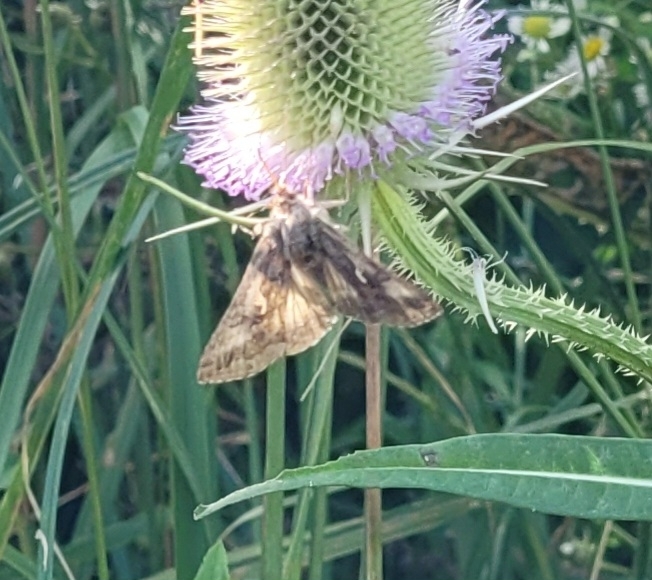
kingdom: Animalia
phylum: Arthropoda
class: Insecta
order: Lepidoptera
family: Noctuidae
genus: Autographa
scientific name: Autographa gamma
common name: Silver y
